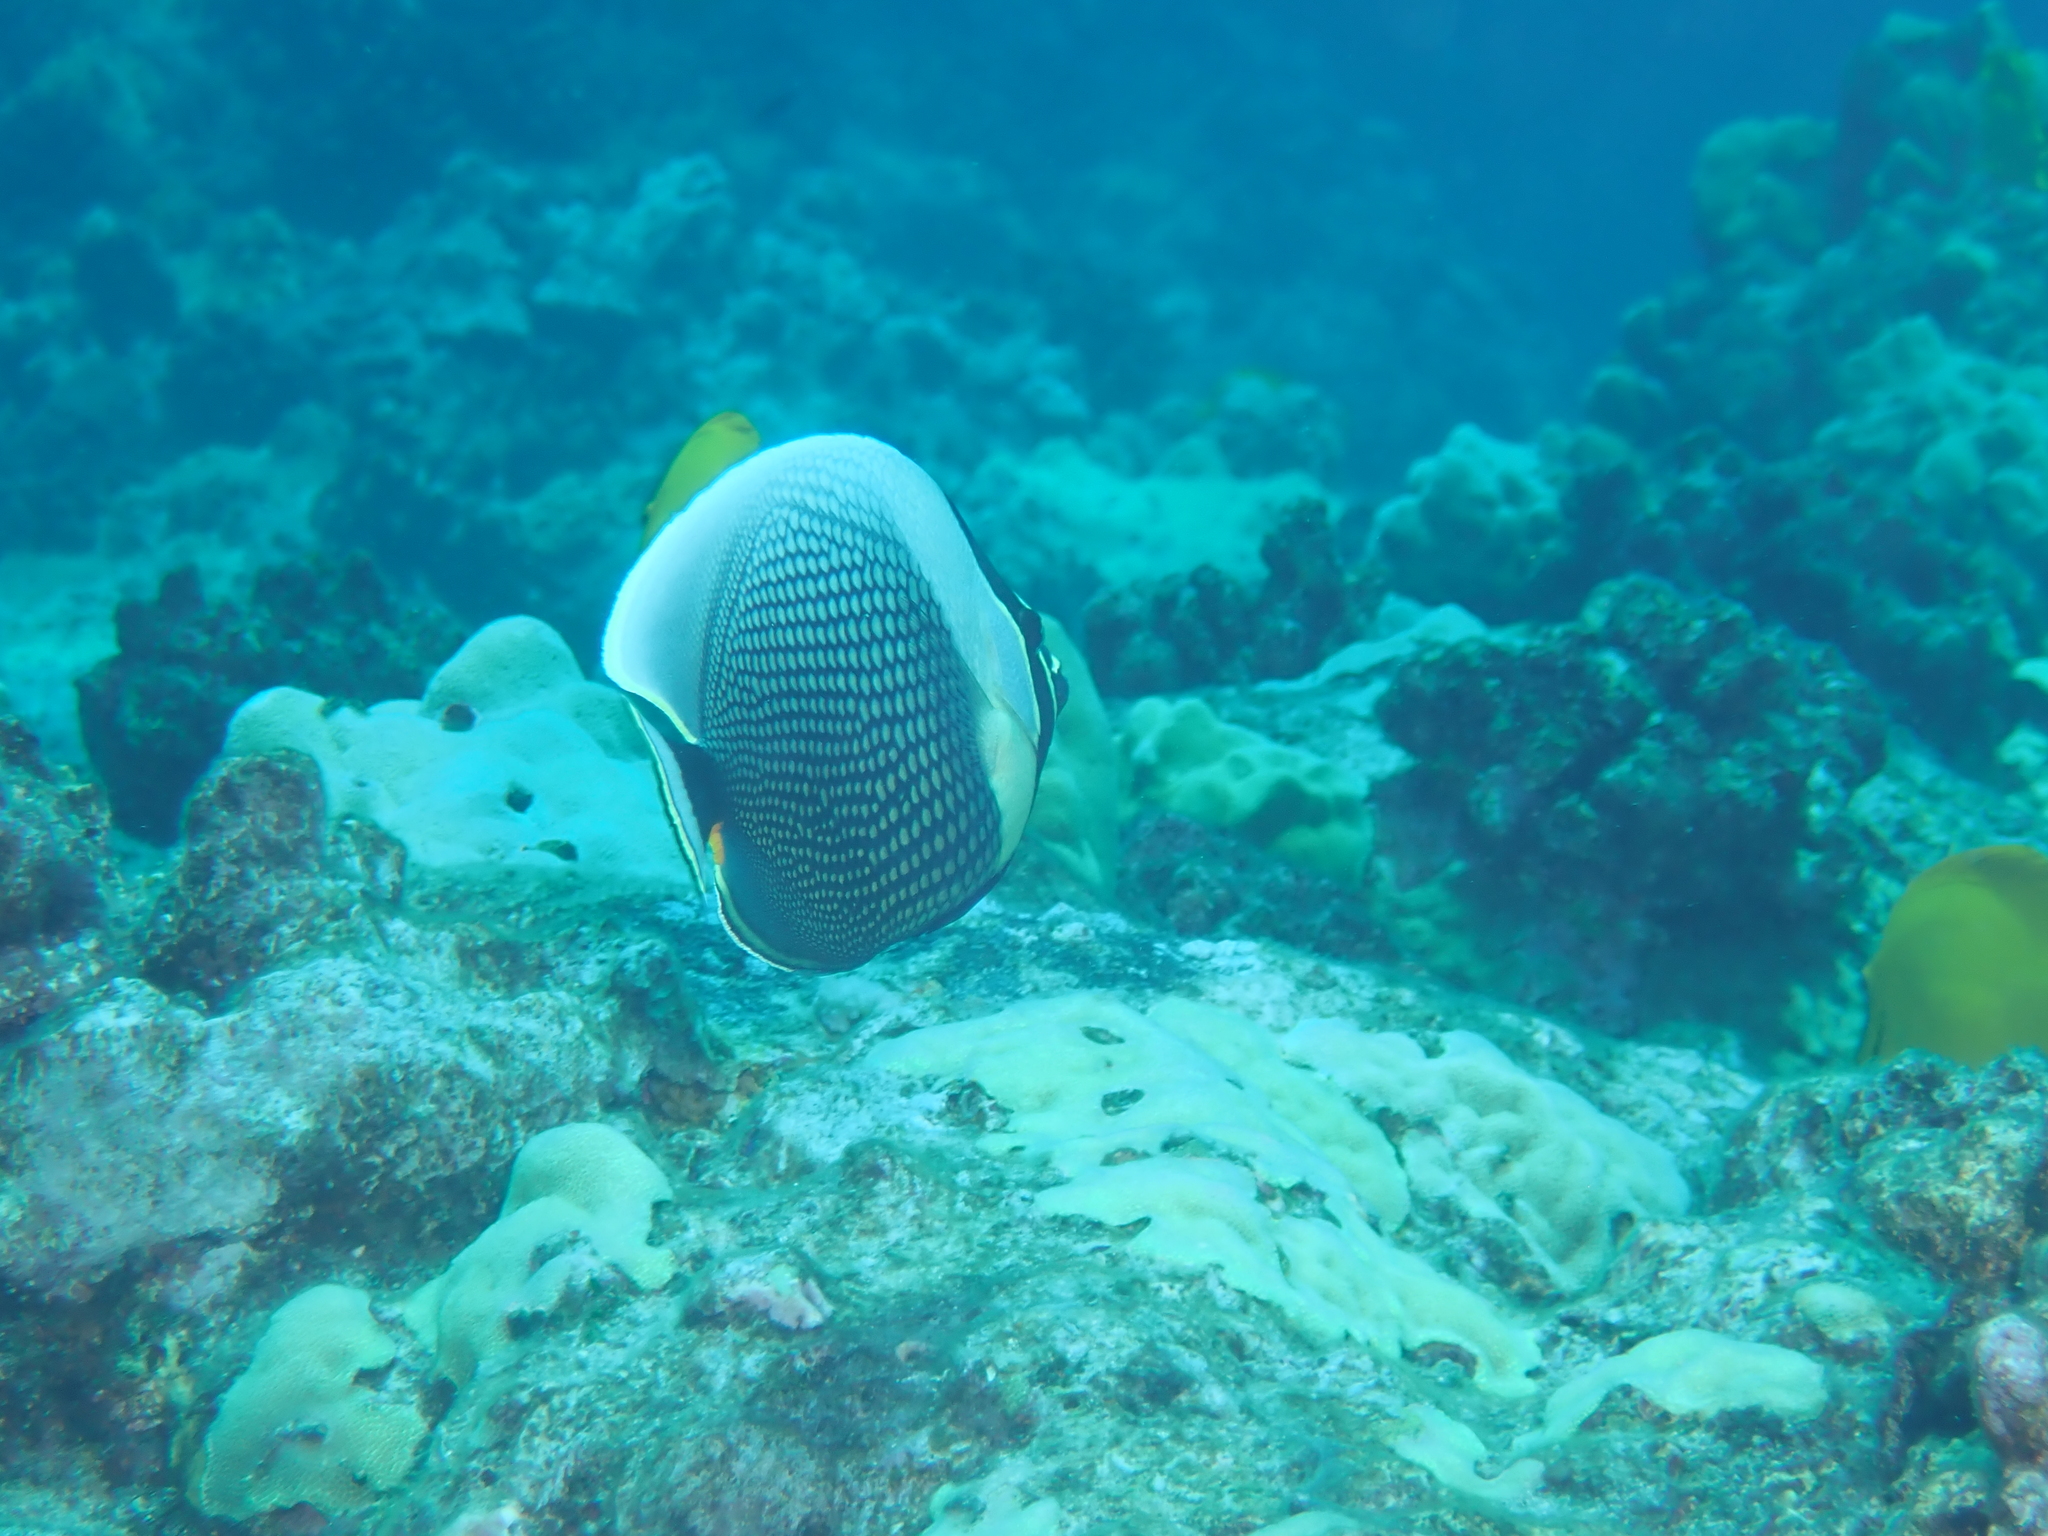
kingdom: Animalia
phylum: Chordata
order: Perciformes
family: Chaetodontidae
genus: Chaetodon
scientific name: Chaetodon reticulatus
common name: Reticulated butterflyfish
